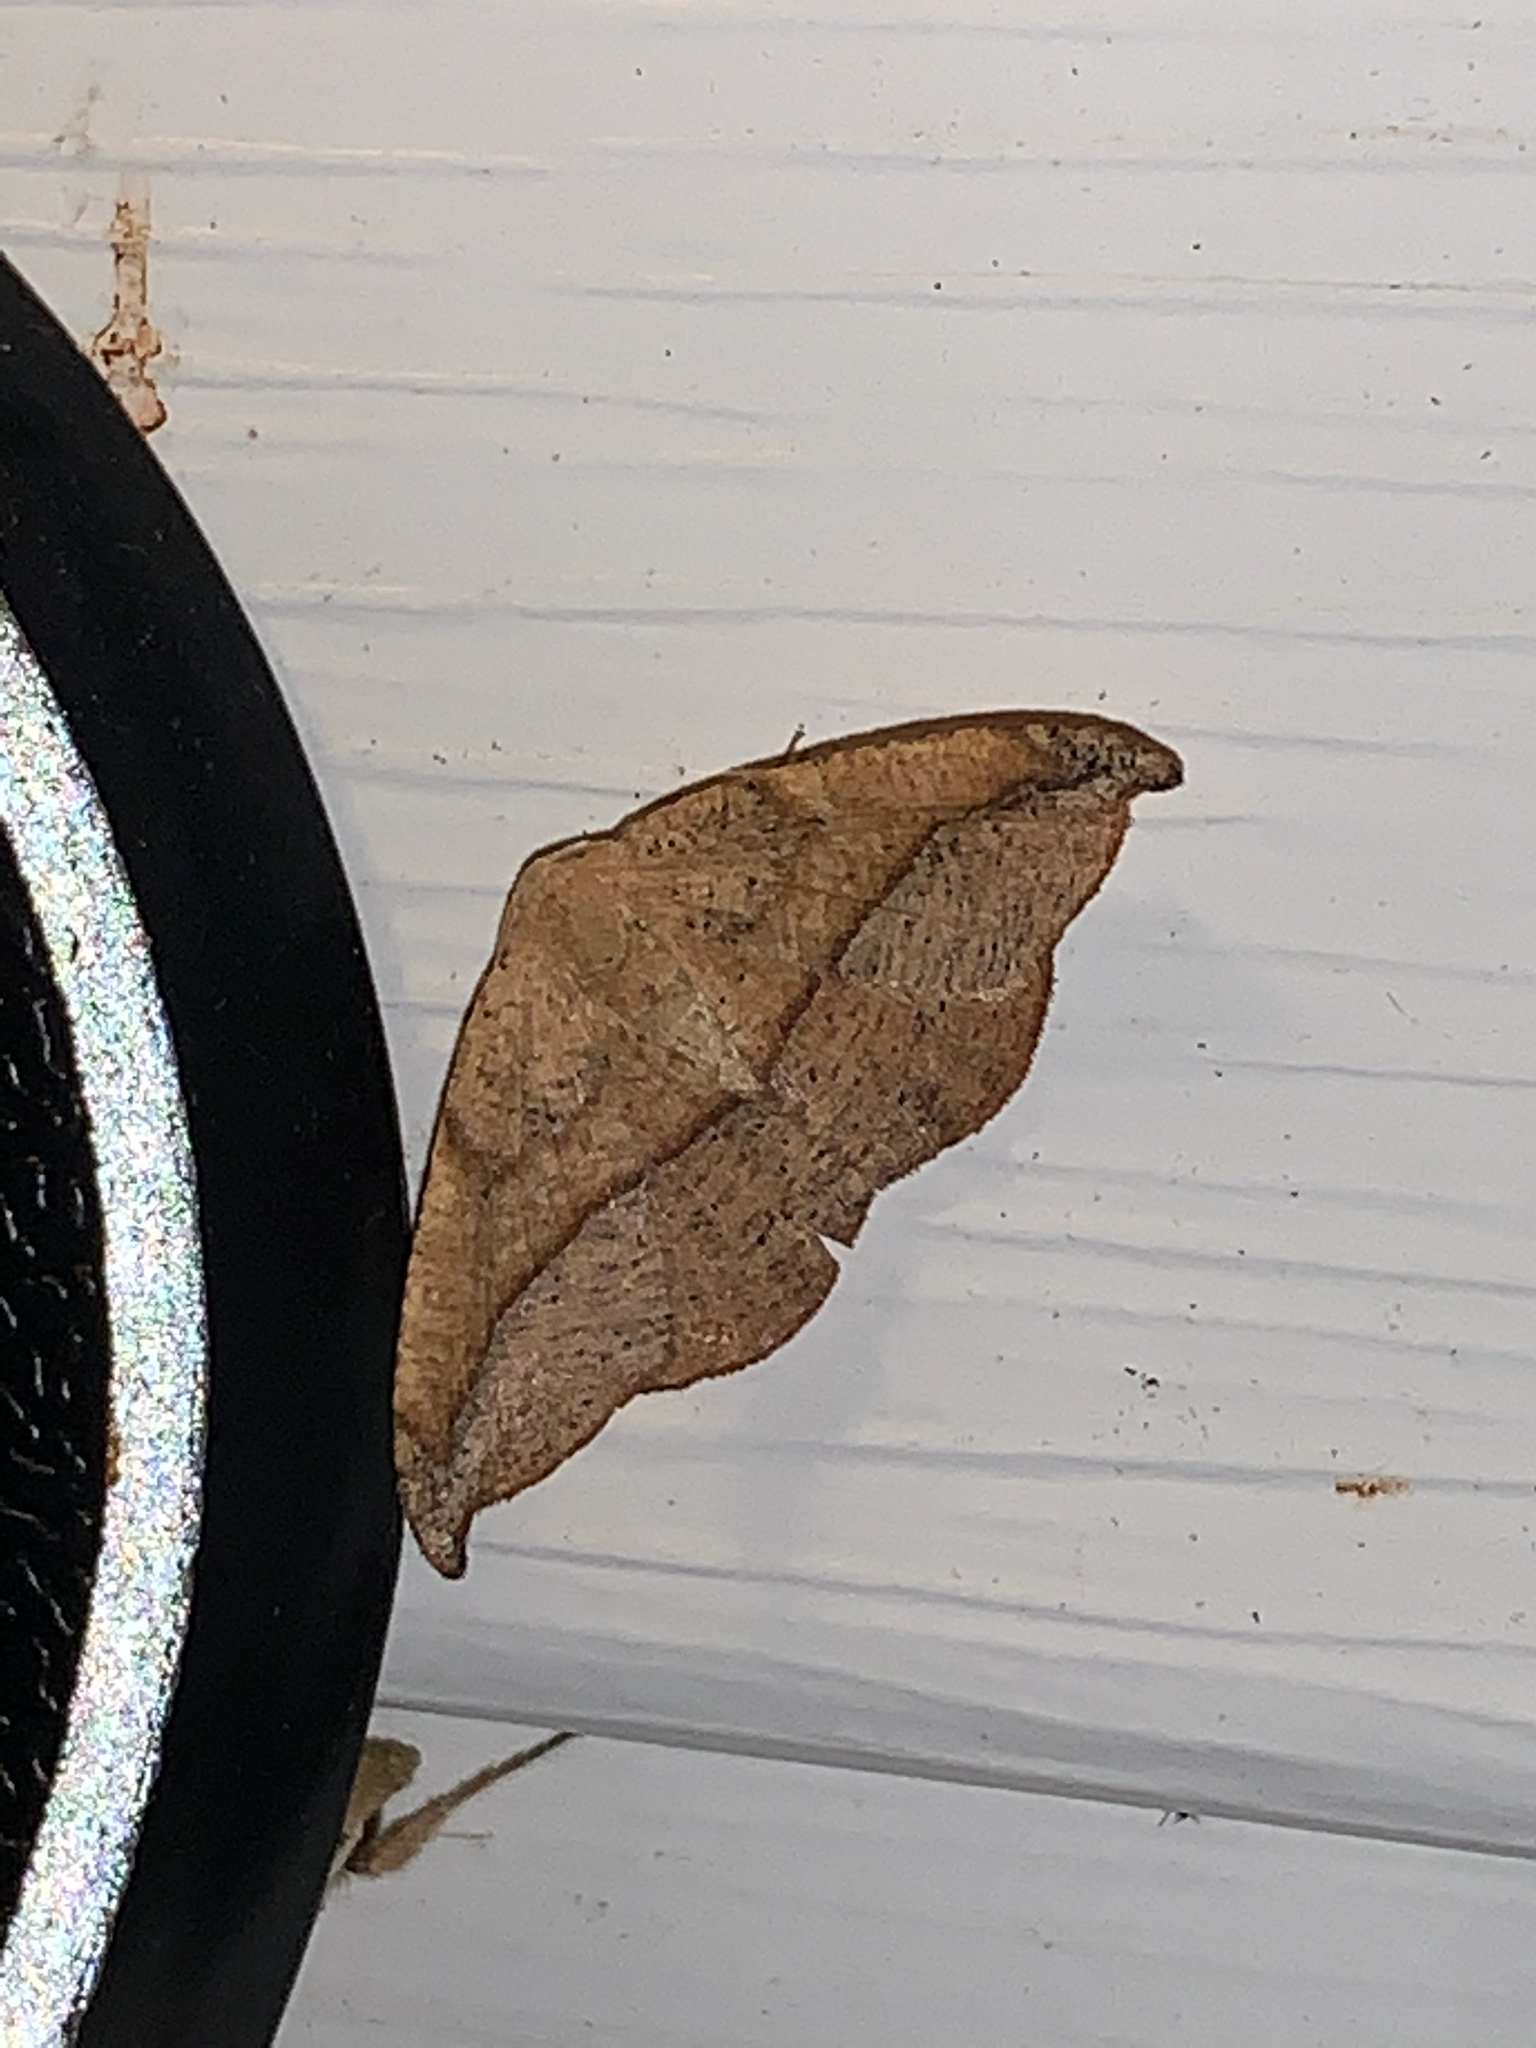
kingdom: Animalia
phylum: Arthropoda
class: Insecta
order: Lepidoptera
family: Geometridae
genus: Patalene
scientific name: Patalene olyzonaria
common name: Juniper geometer moth
